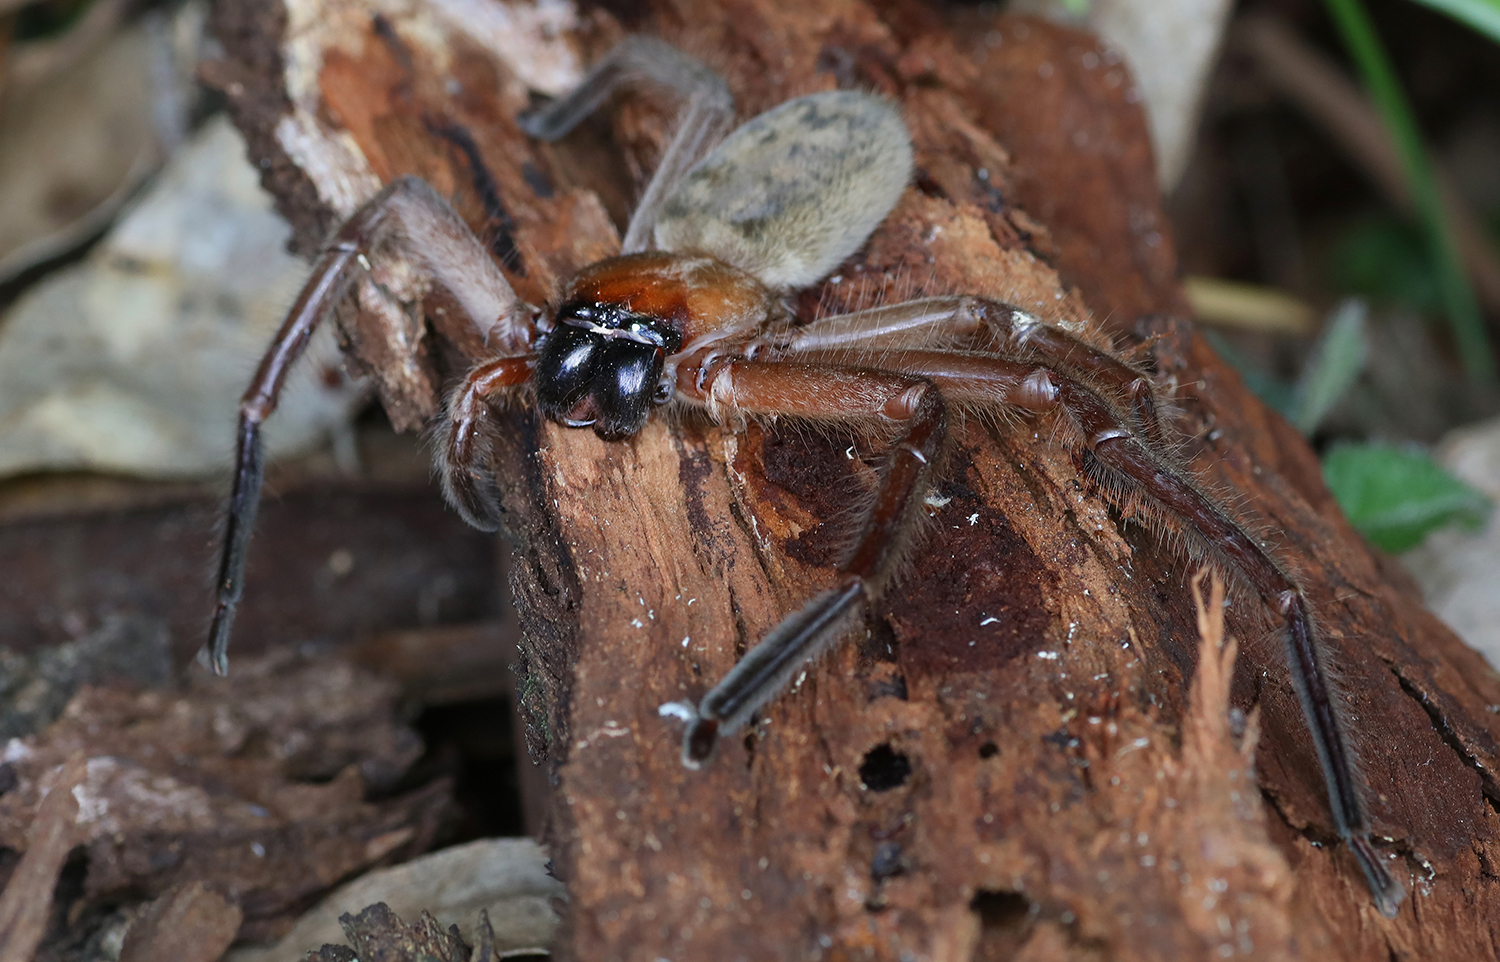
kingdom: Animalia
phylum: Arthropoda
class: Arachnida
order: Araneae
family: Sparassidae
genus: Delena
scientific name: Delena cancerides
